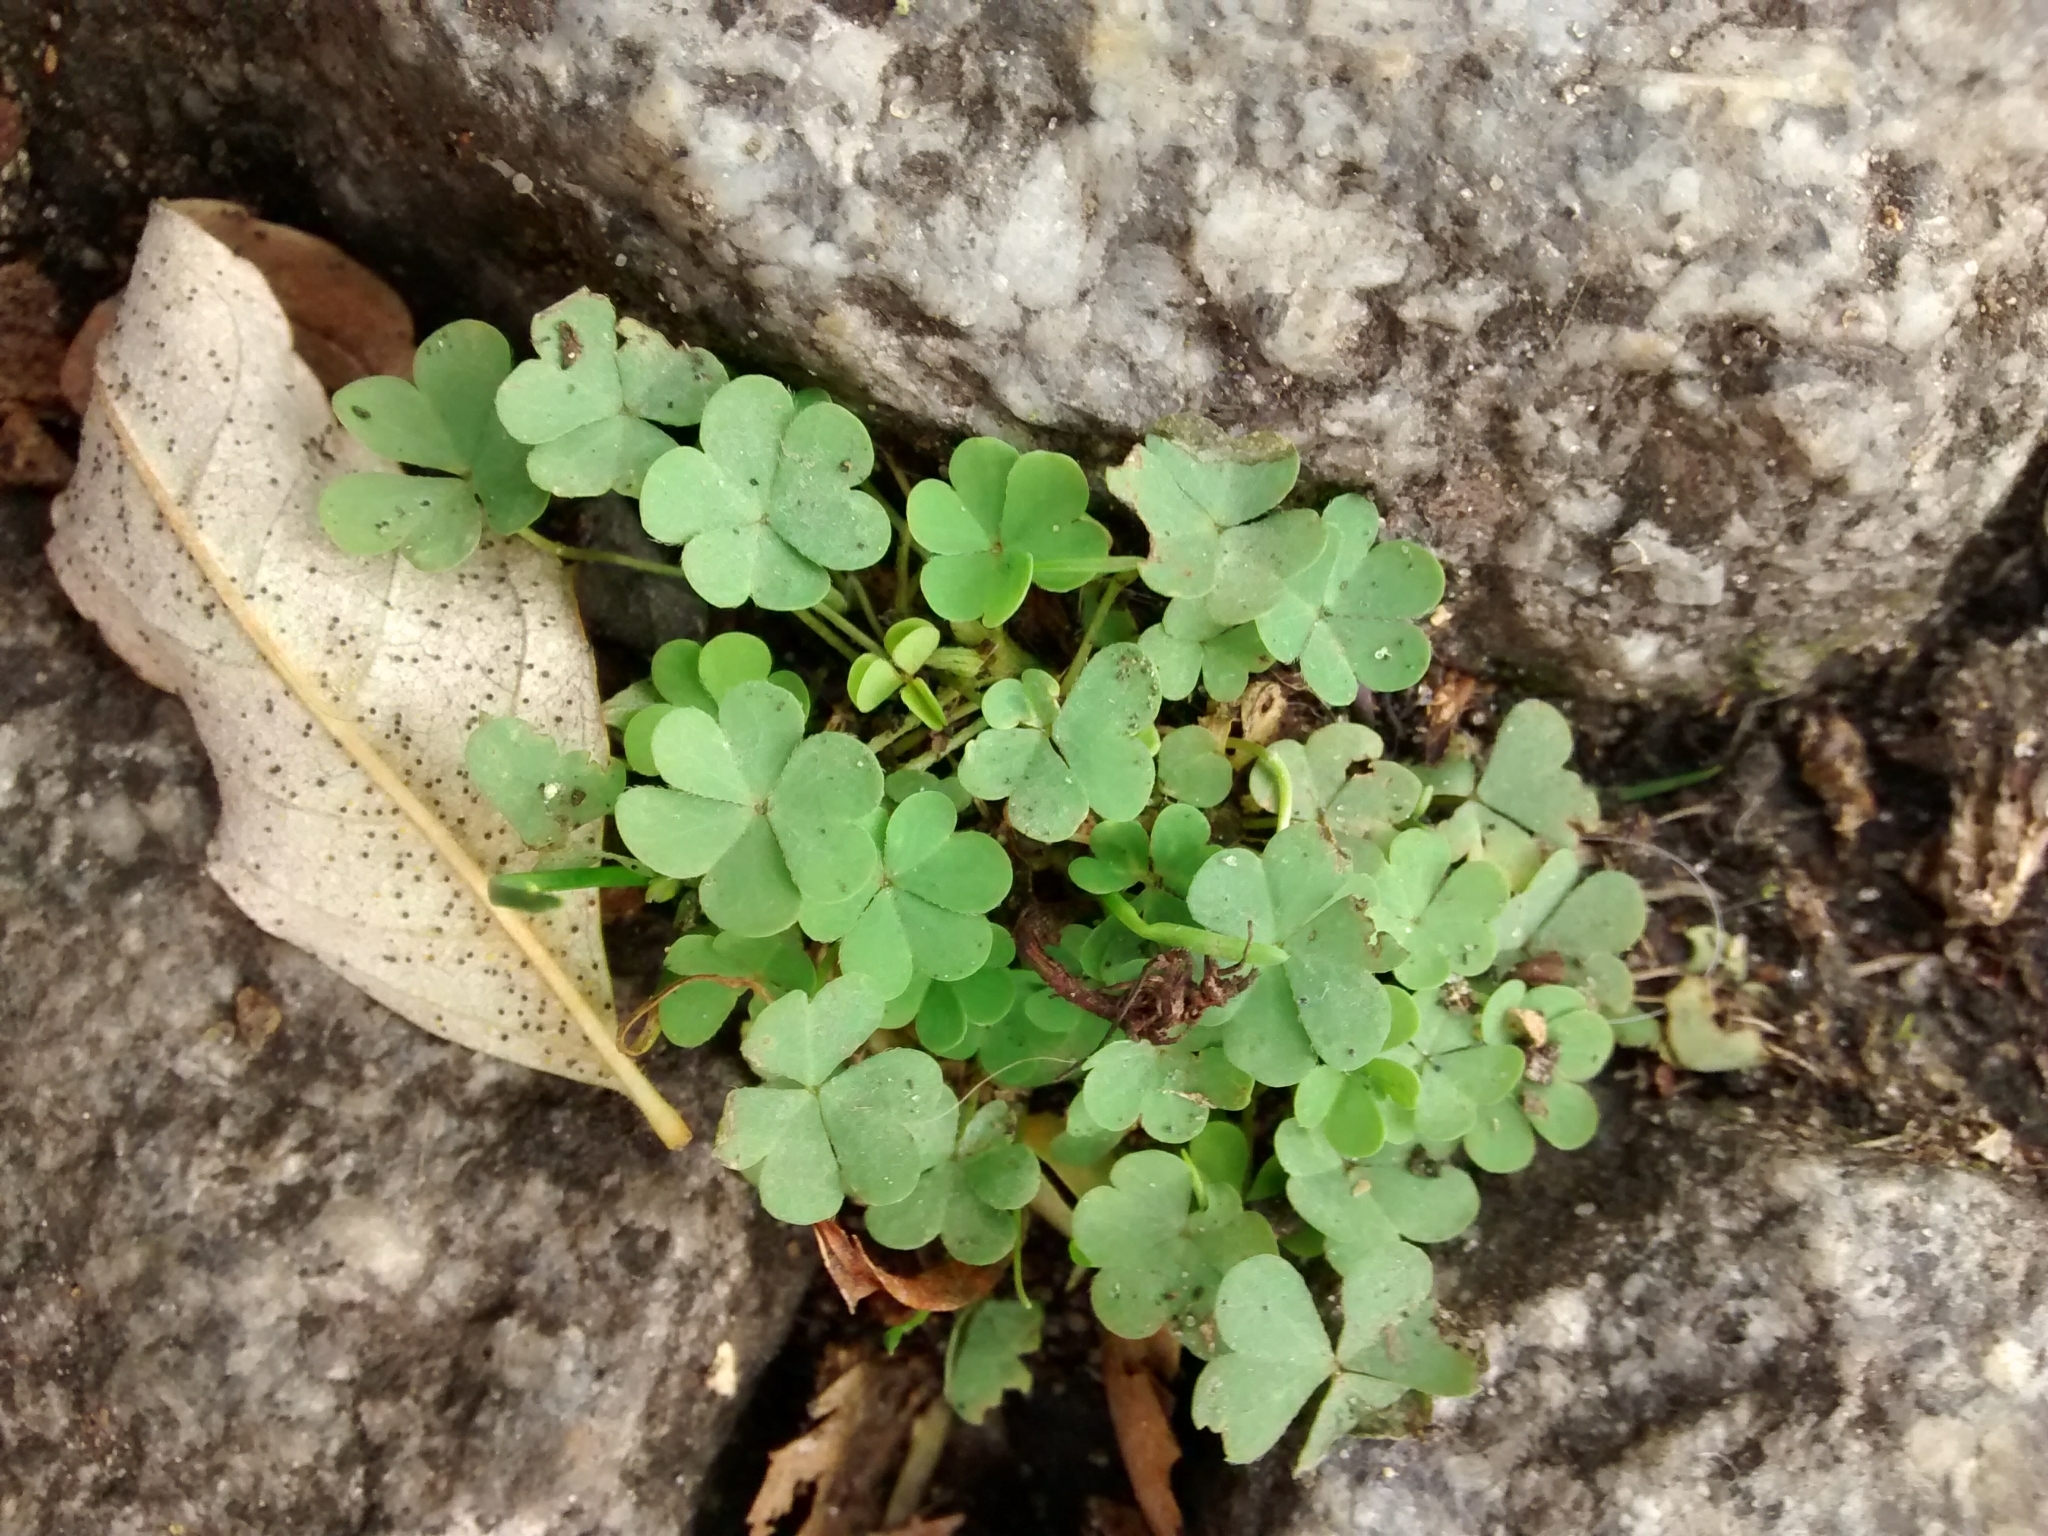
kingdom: Plantae
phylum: Tracheophyta
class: Magnoliopsida
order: Oxalidales
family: Oxalidaceae
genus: Oxalis
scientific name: Oxalis corniculata
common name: Procumbent yellow-sorrel
